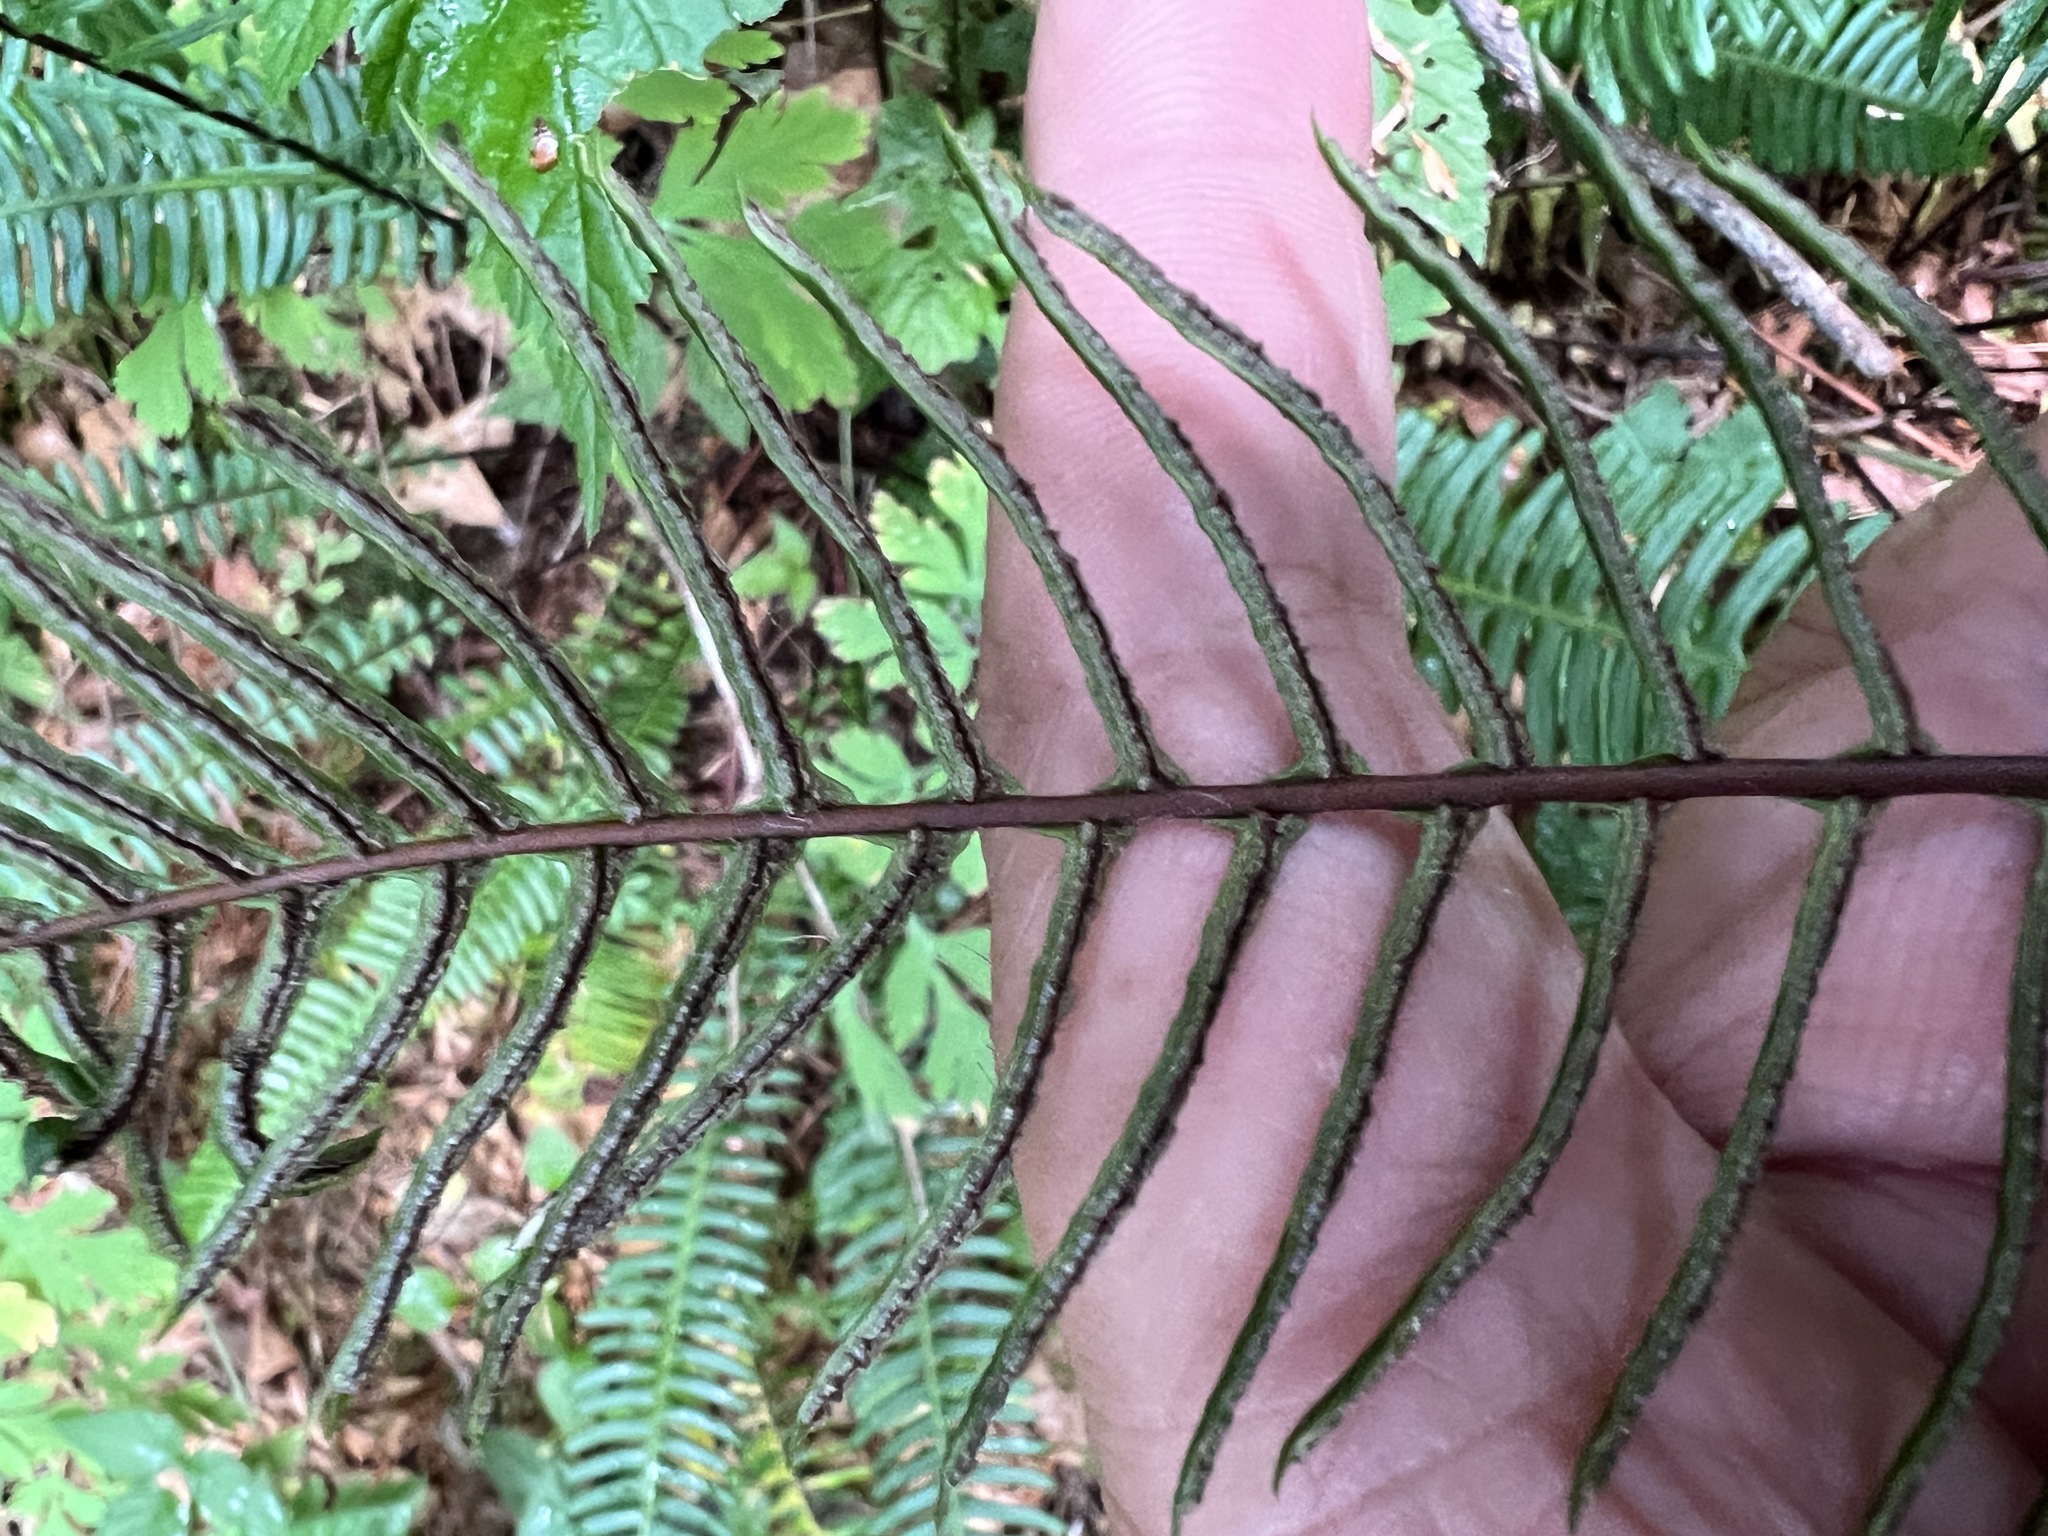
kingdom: Plantae
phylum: Tracheophyta
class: Polypodiopsida
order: Polypodiales
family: Blechnaceae
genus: Struthiopteris
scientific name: Struthiopteris spicant
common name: Deer fern
